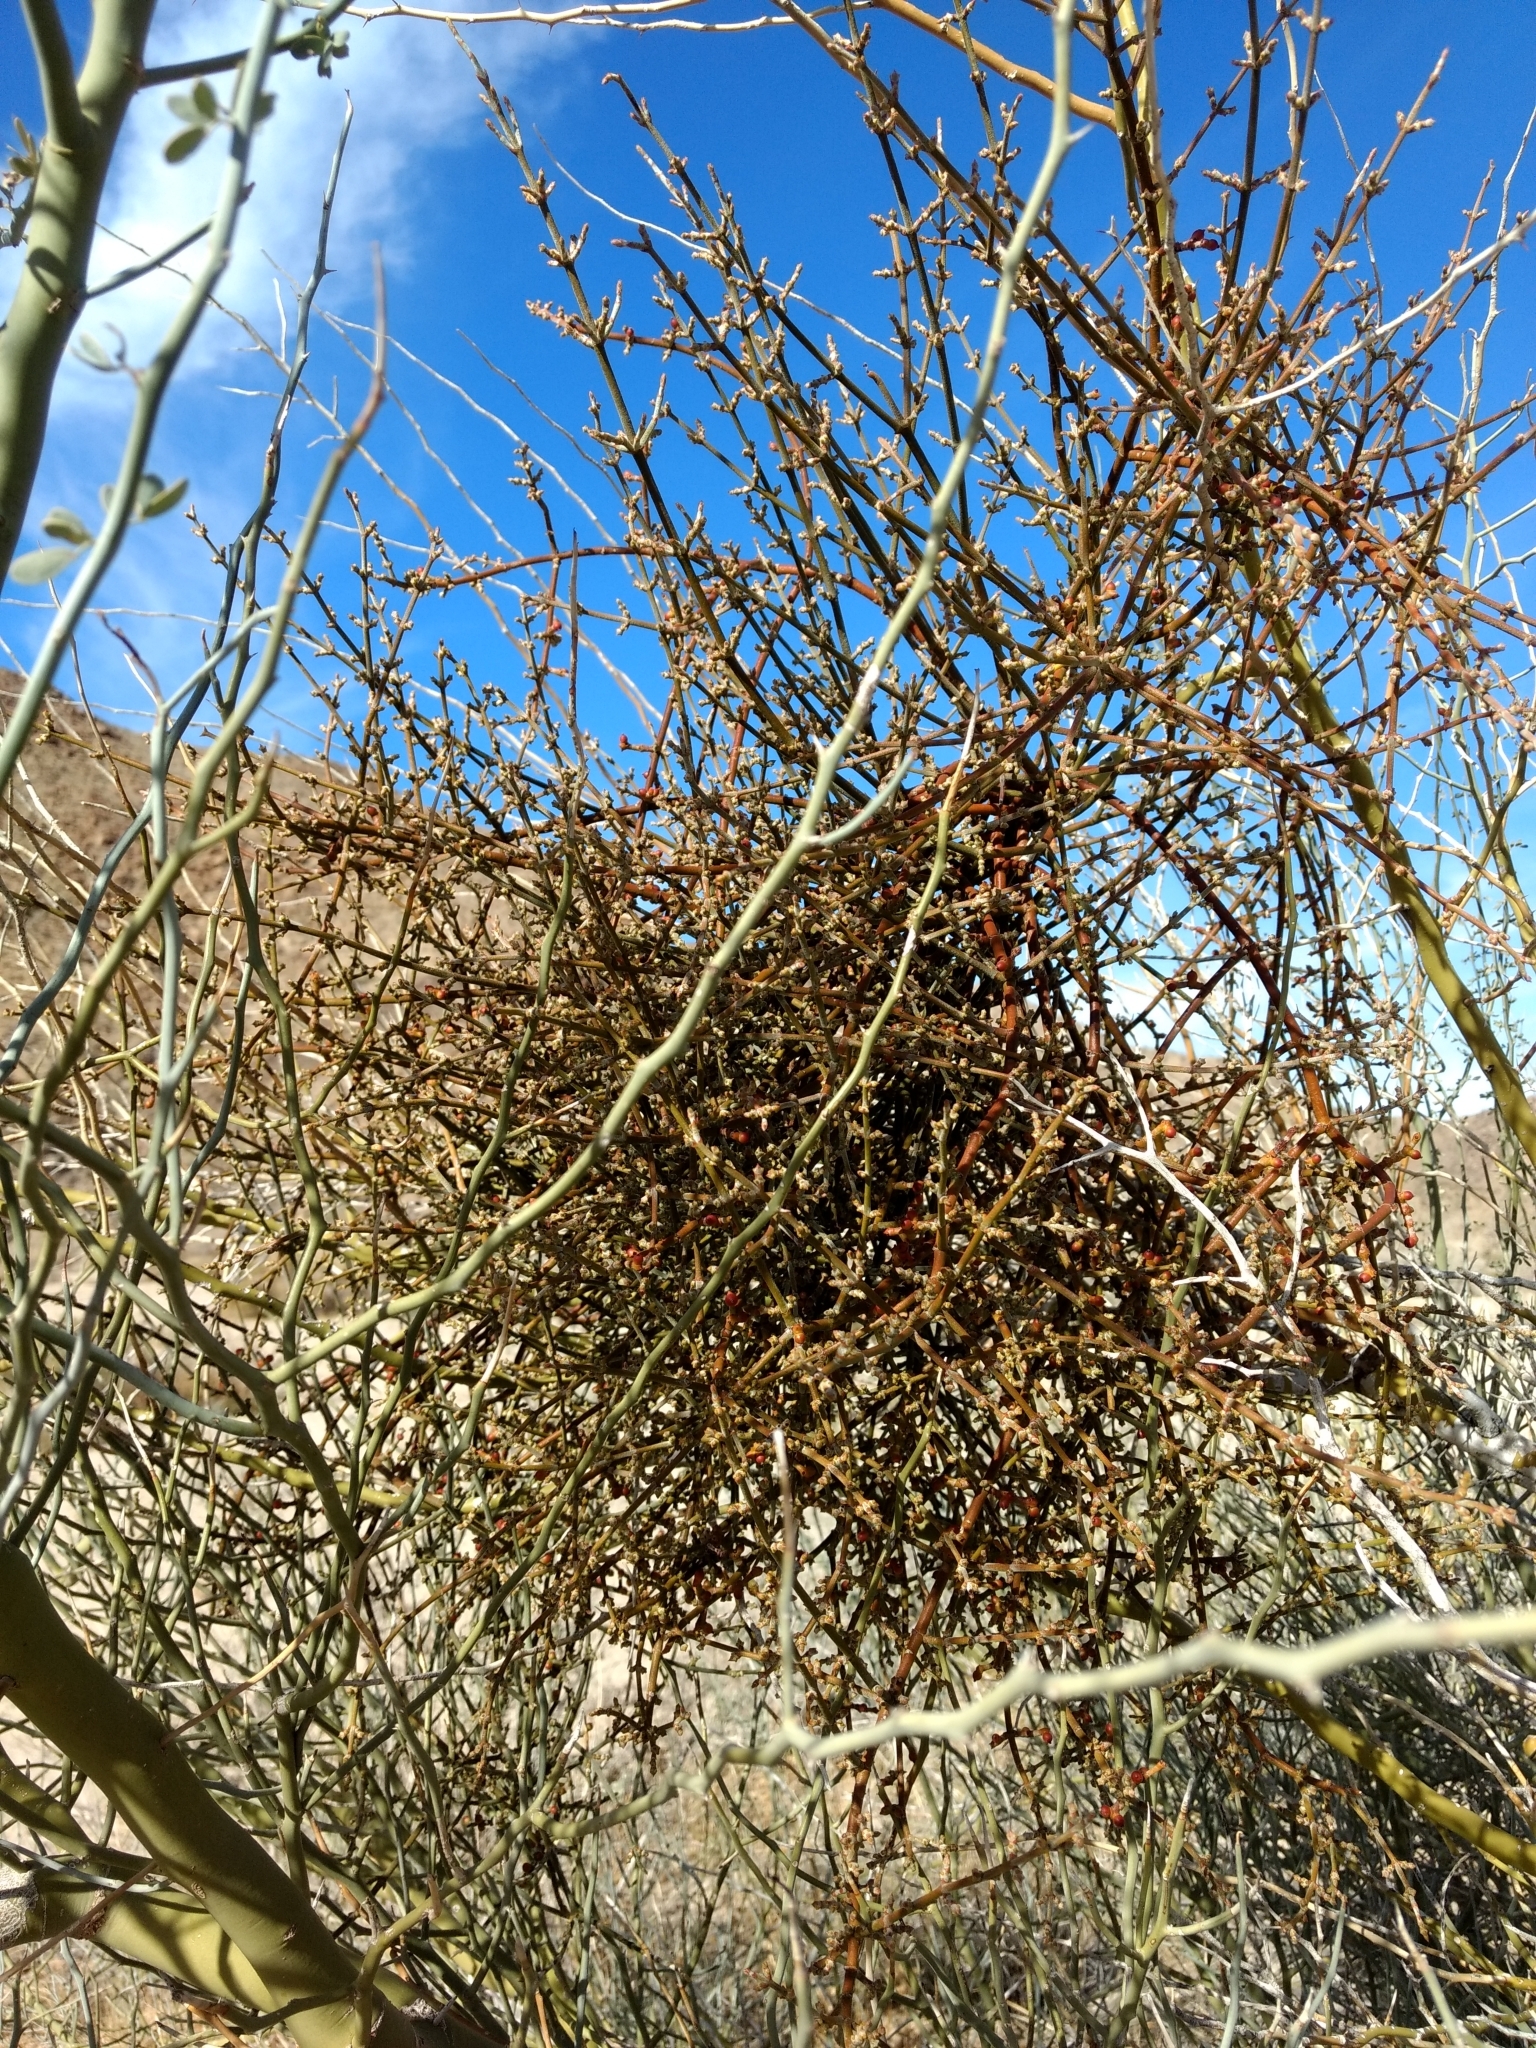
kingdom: Plantae
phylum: Tracheophyta
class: Magnoliopsida
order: Santalales
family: Viscaceae
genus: Phoradendron
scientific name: Phoradendron californicum
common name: Acacia mistletoe
